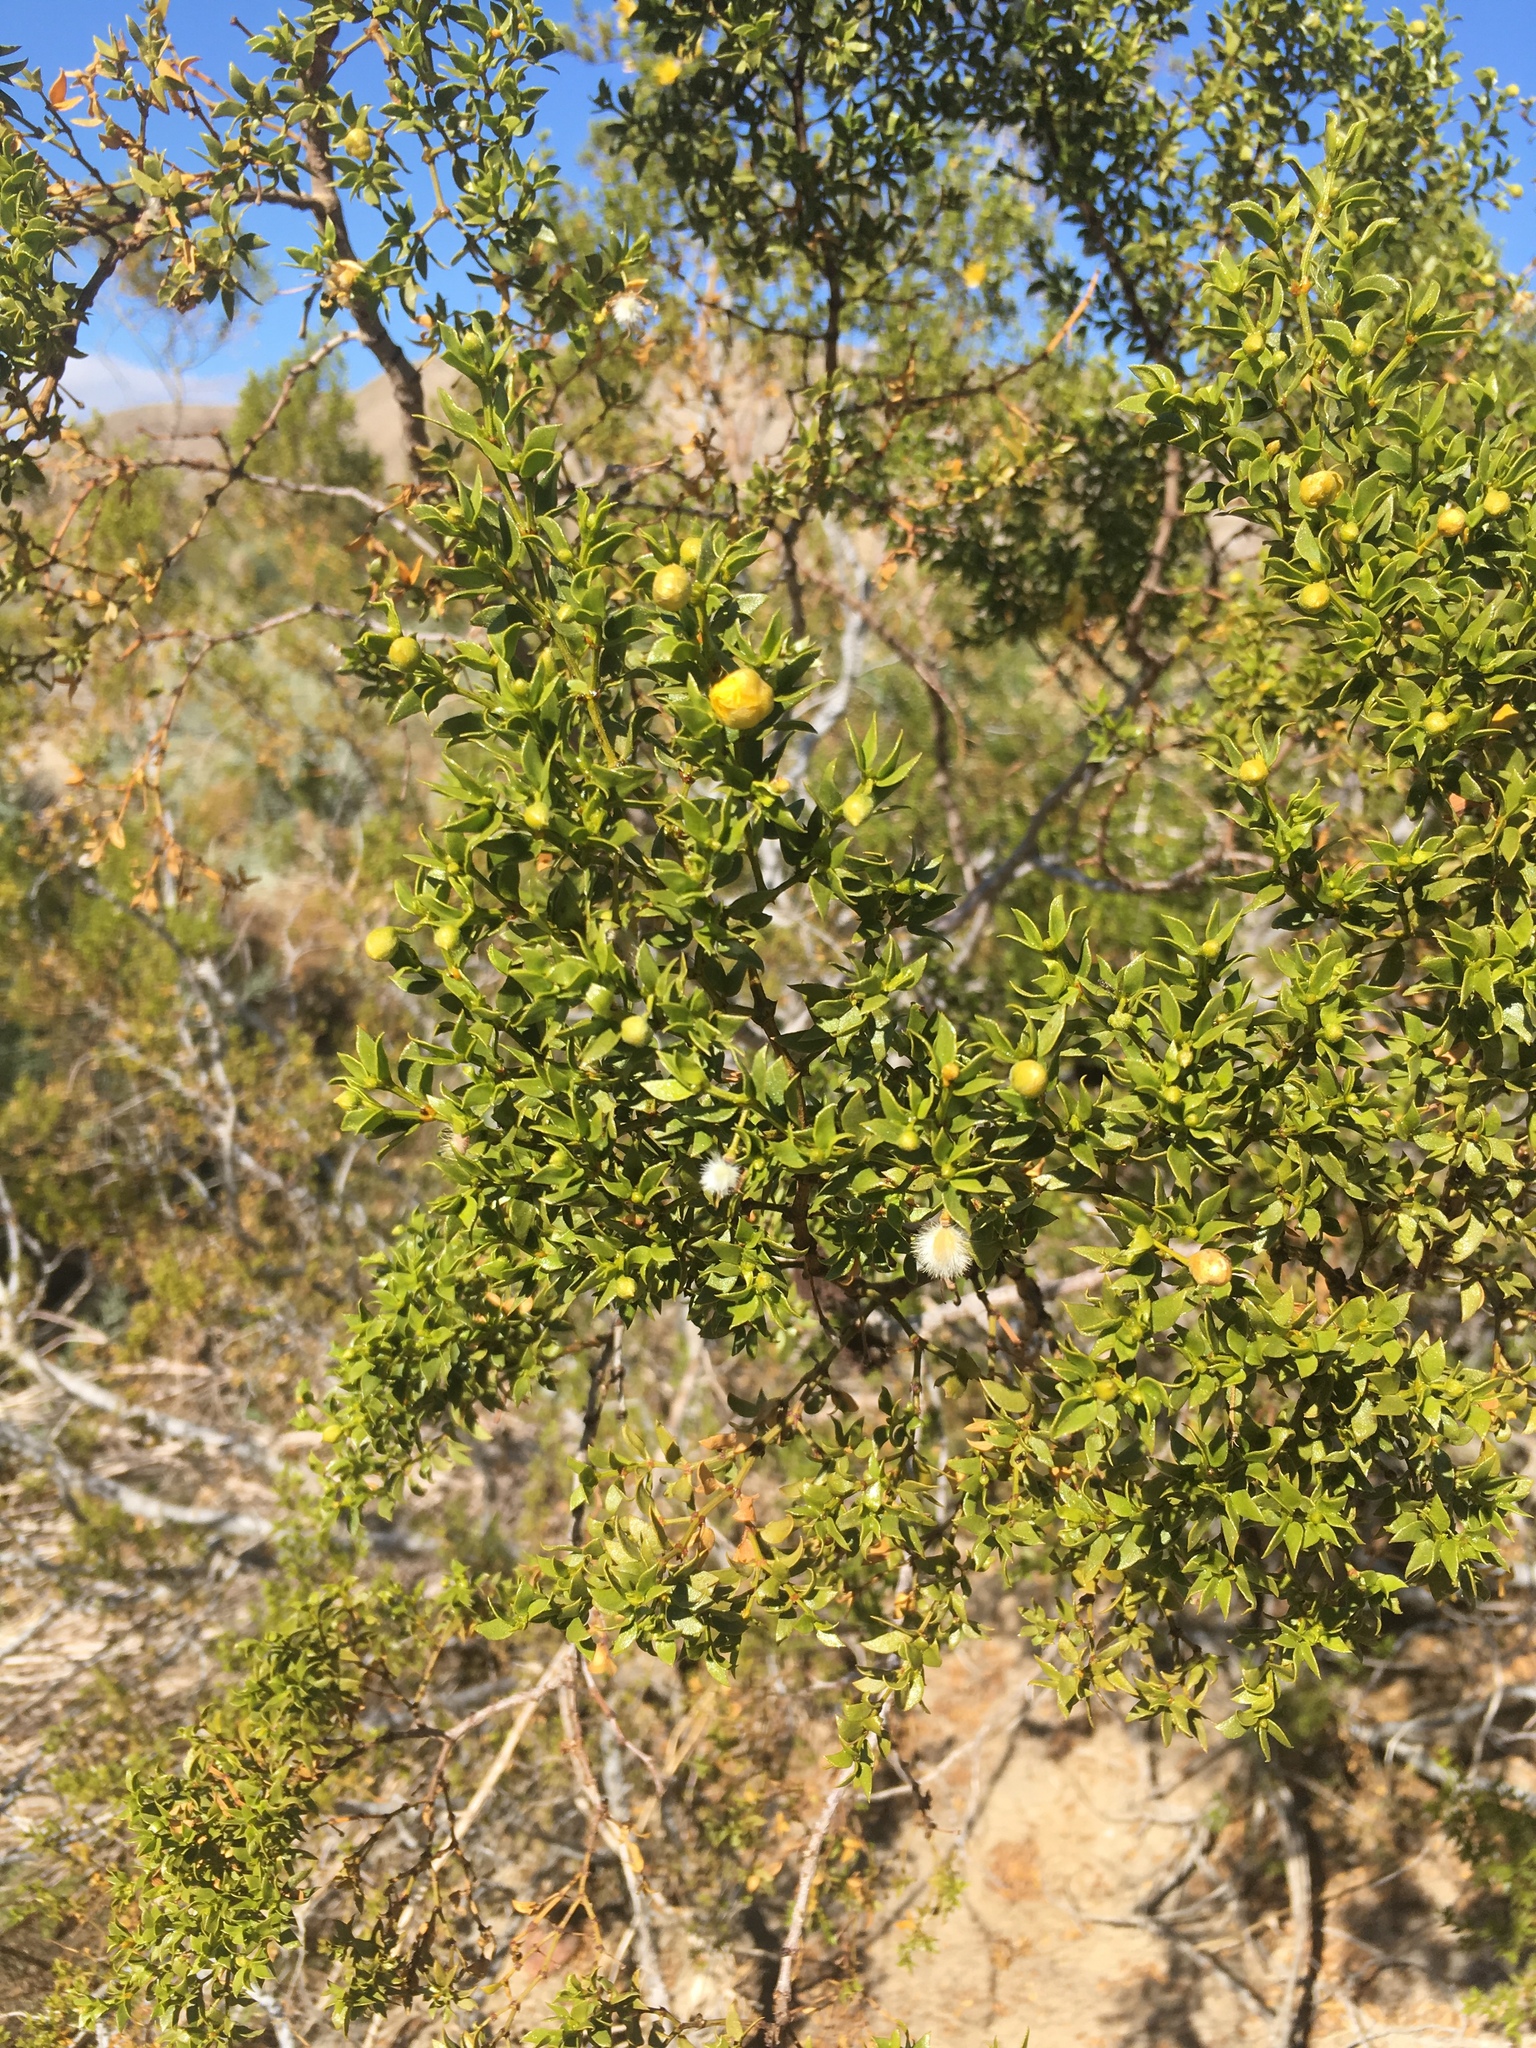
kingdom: Animalia
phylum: Arthropoda
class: Insecta
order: Diptera
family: Cecidomyiidae
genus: Asphondylia
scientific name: Asphondylia auripila
